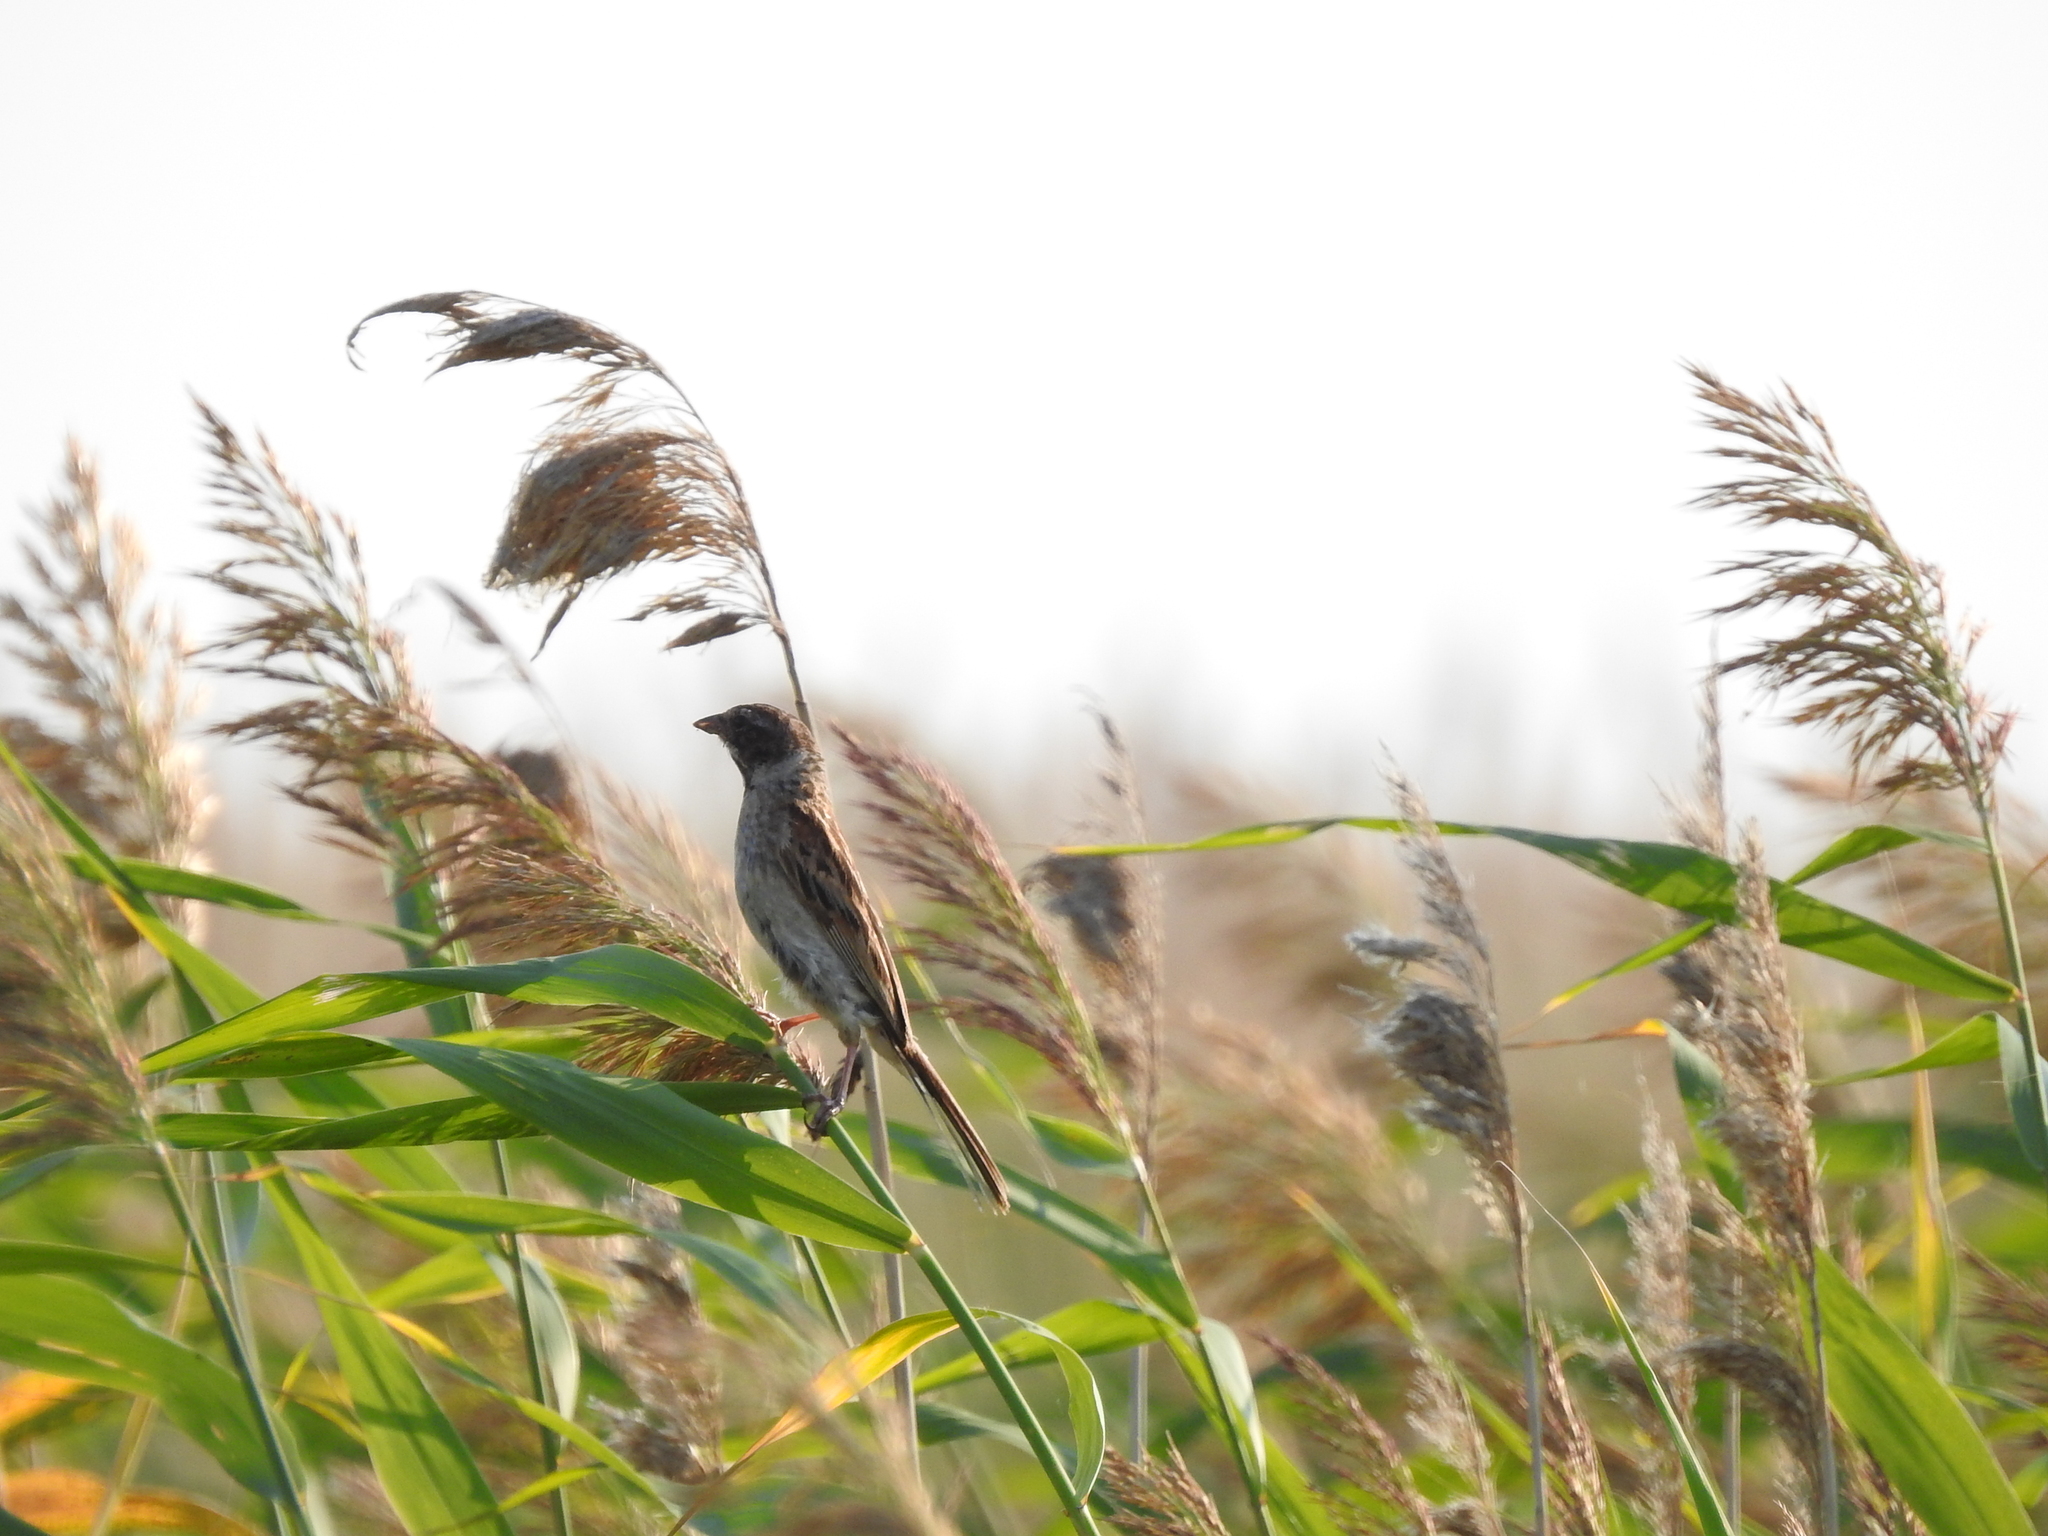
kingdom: Animalia
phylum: Chordata
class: Aves
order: Passeriformes
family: Emberizidae
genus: Emberiza
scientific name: Emberiza schoeniclus
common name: Reed bunting
